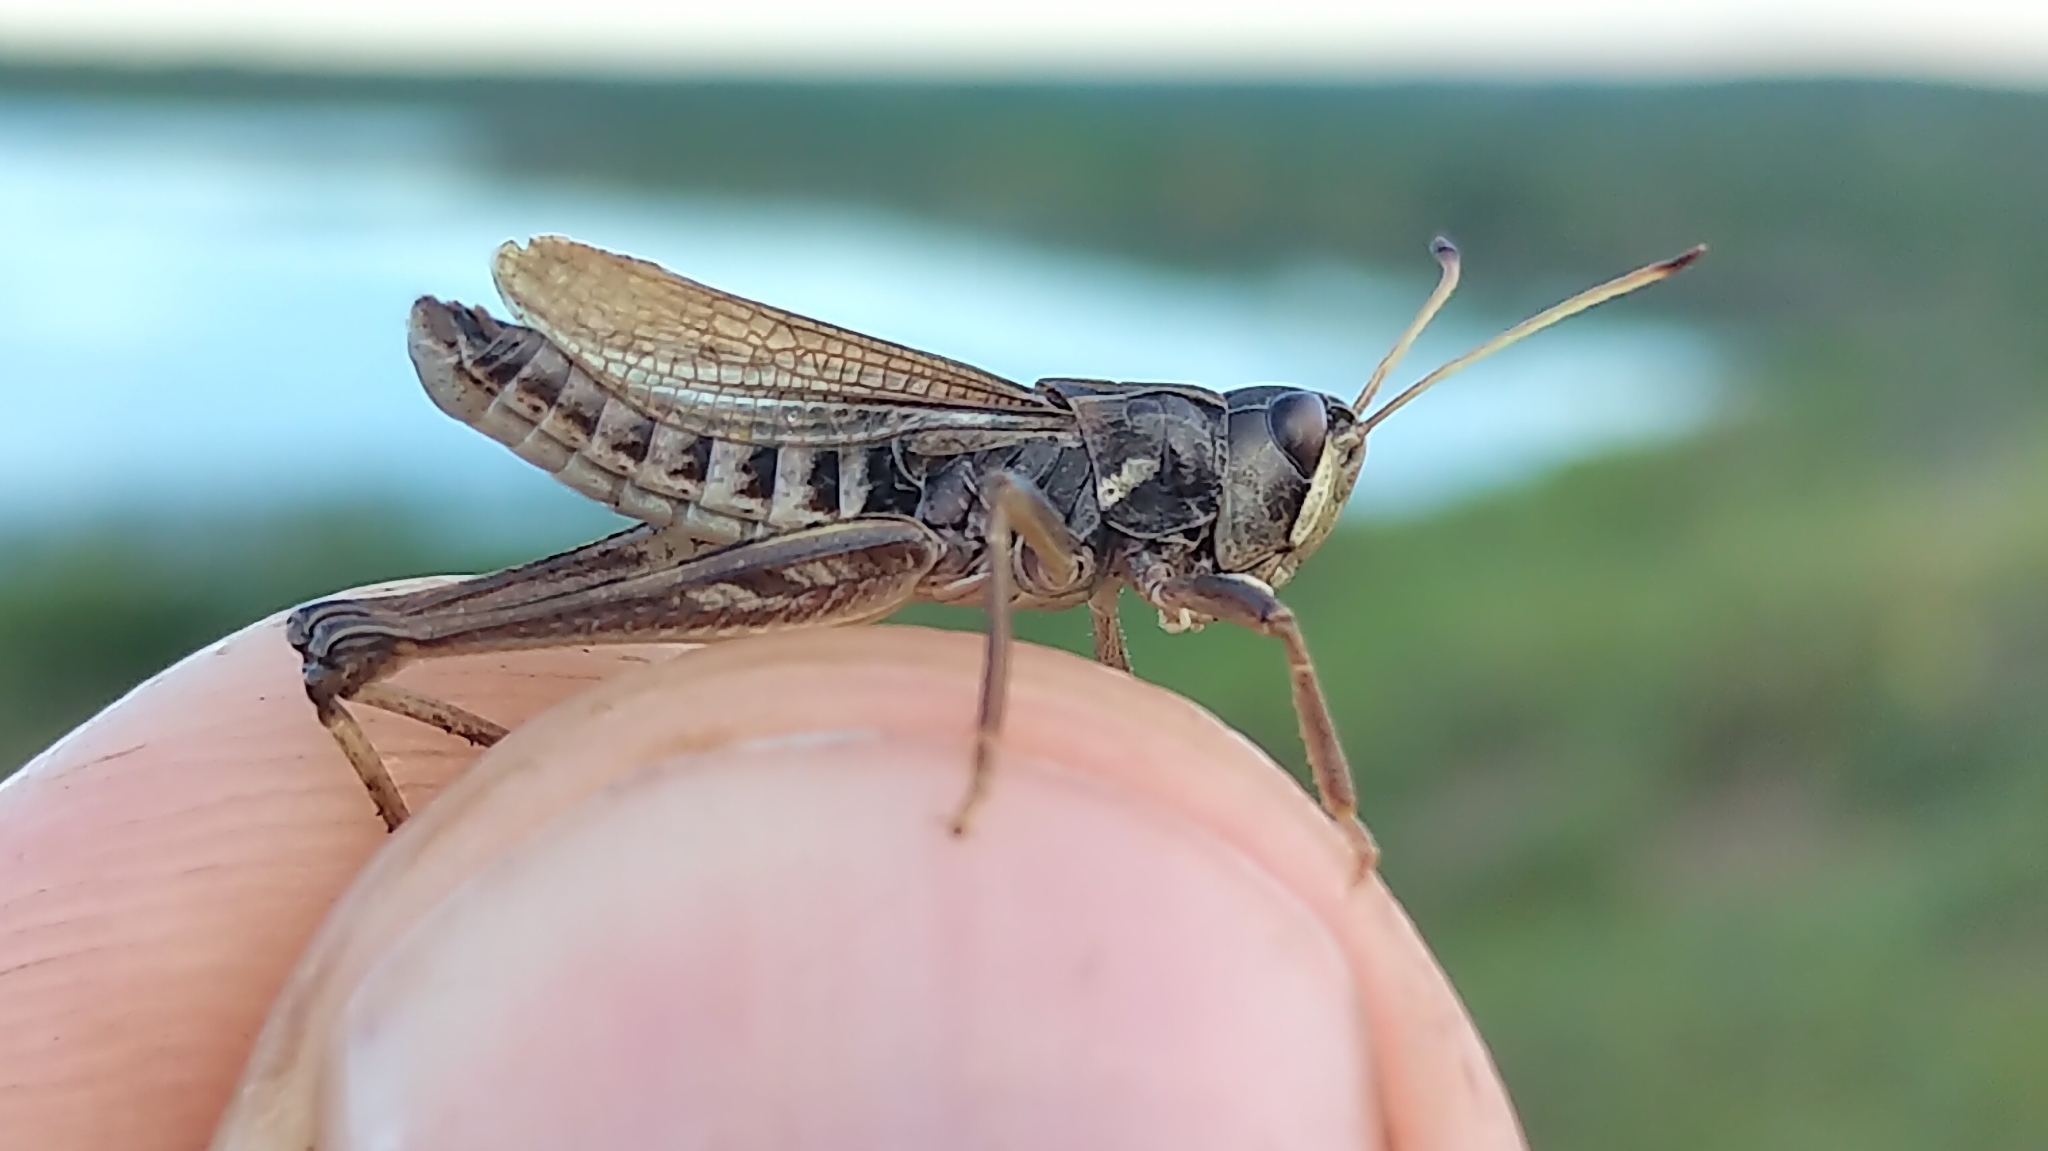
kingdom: Animalia
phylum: Arthropoda
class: Insecta
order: Orthoptera
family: Acrididae
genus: Aeropedellus
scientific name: Aeropedellus clavatus
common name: Clubhorned grasshopper
